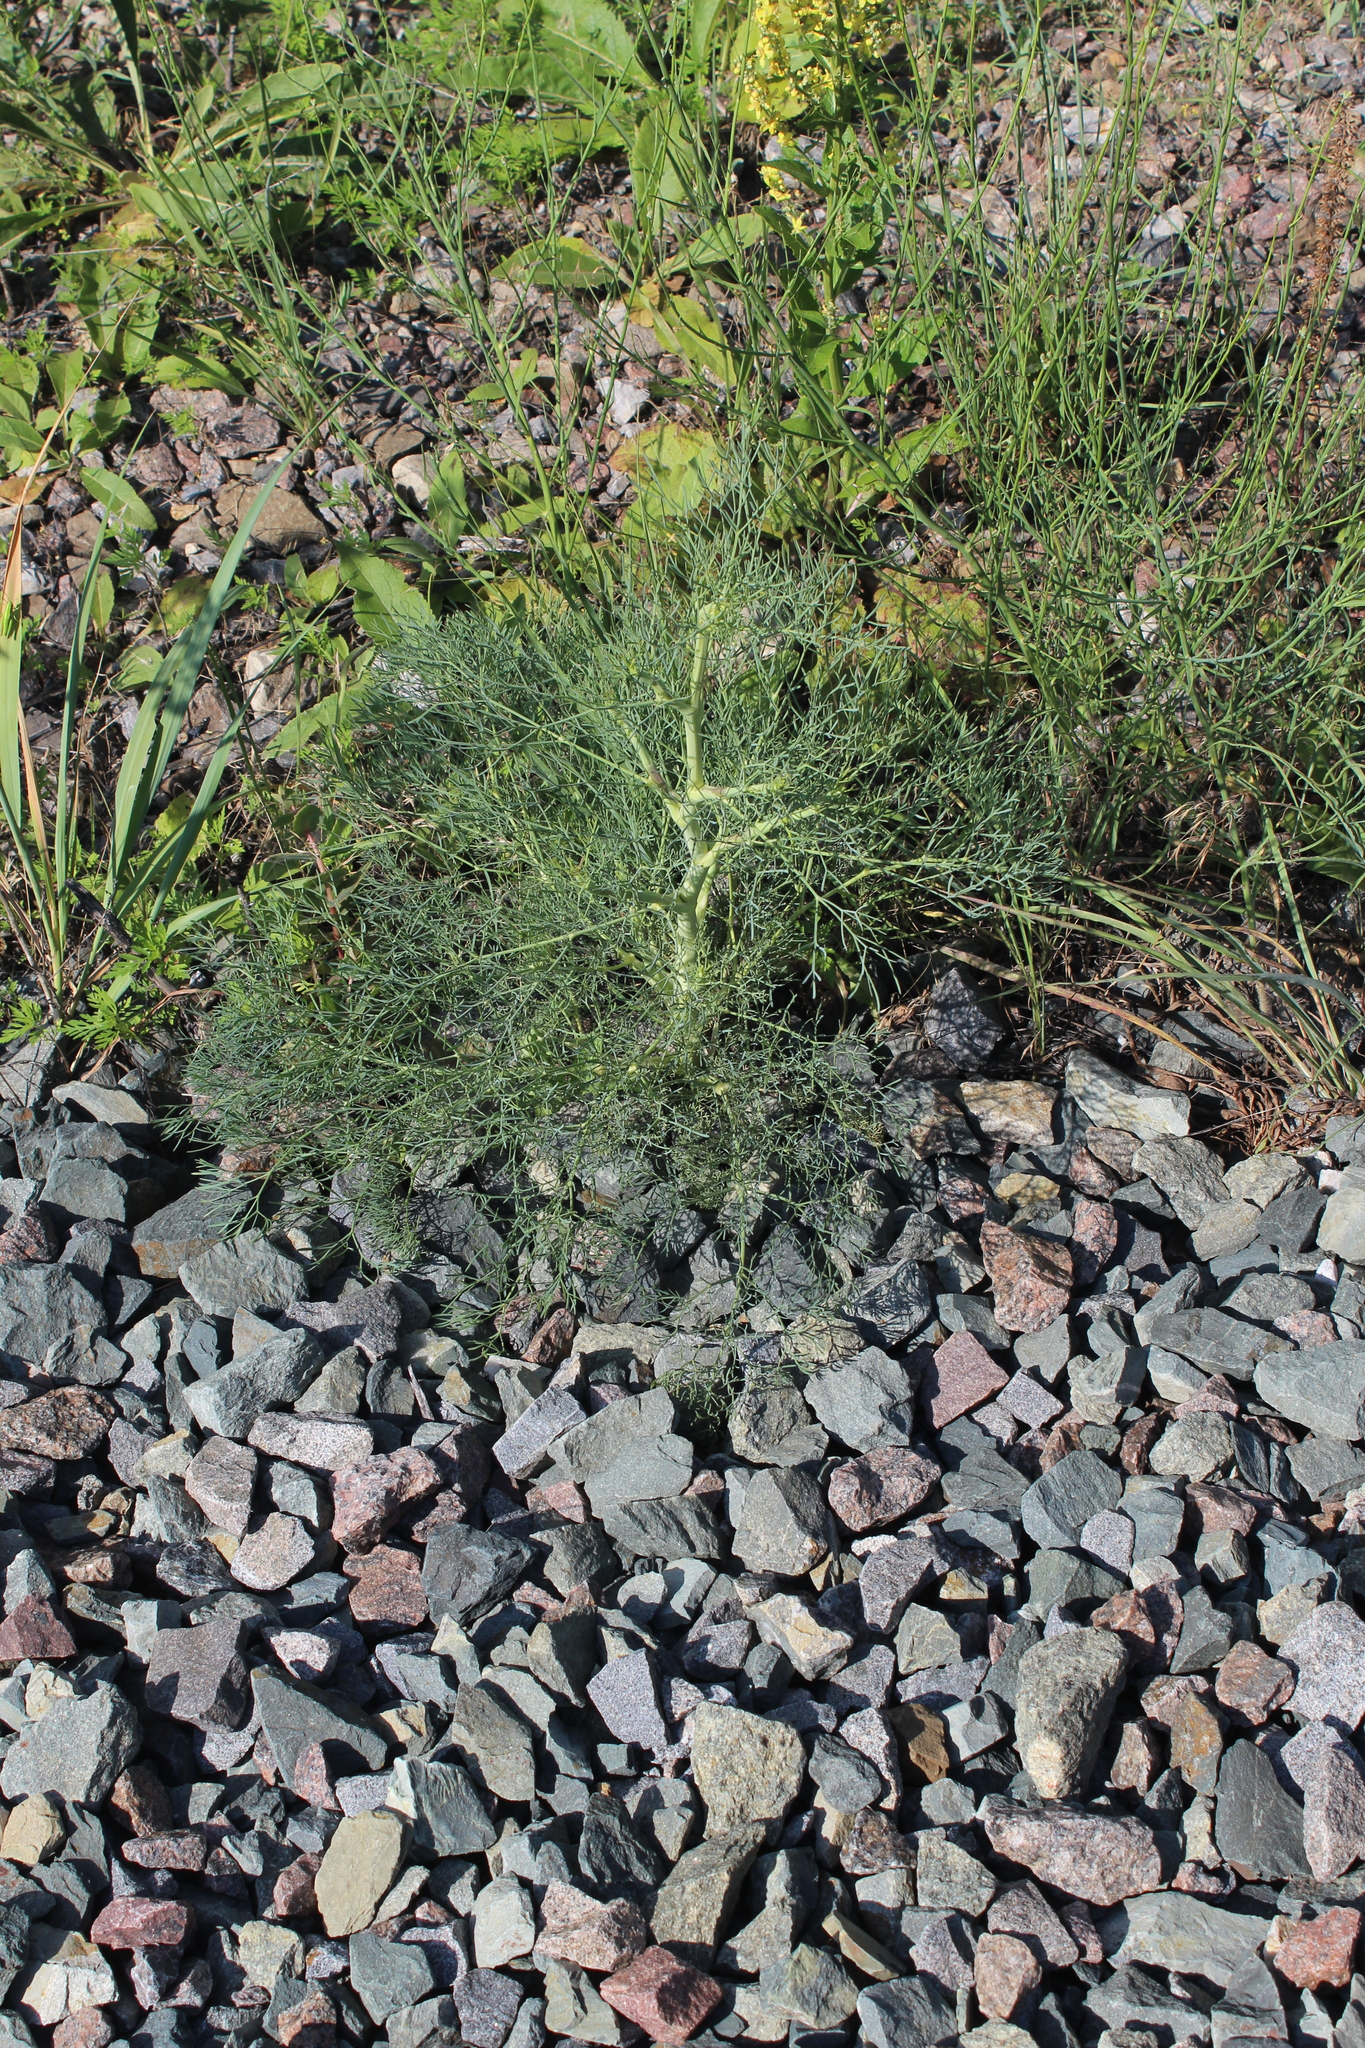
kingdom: Plantae
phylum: Tracheophyta
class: Magnoliopsida
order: Apiales
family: Apiaceae
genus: Seseli
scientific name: Seseli arenarium
